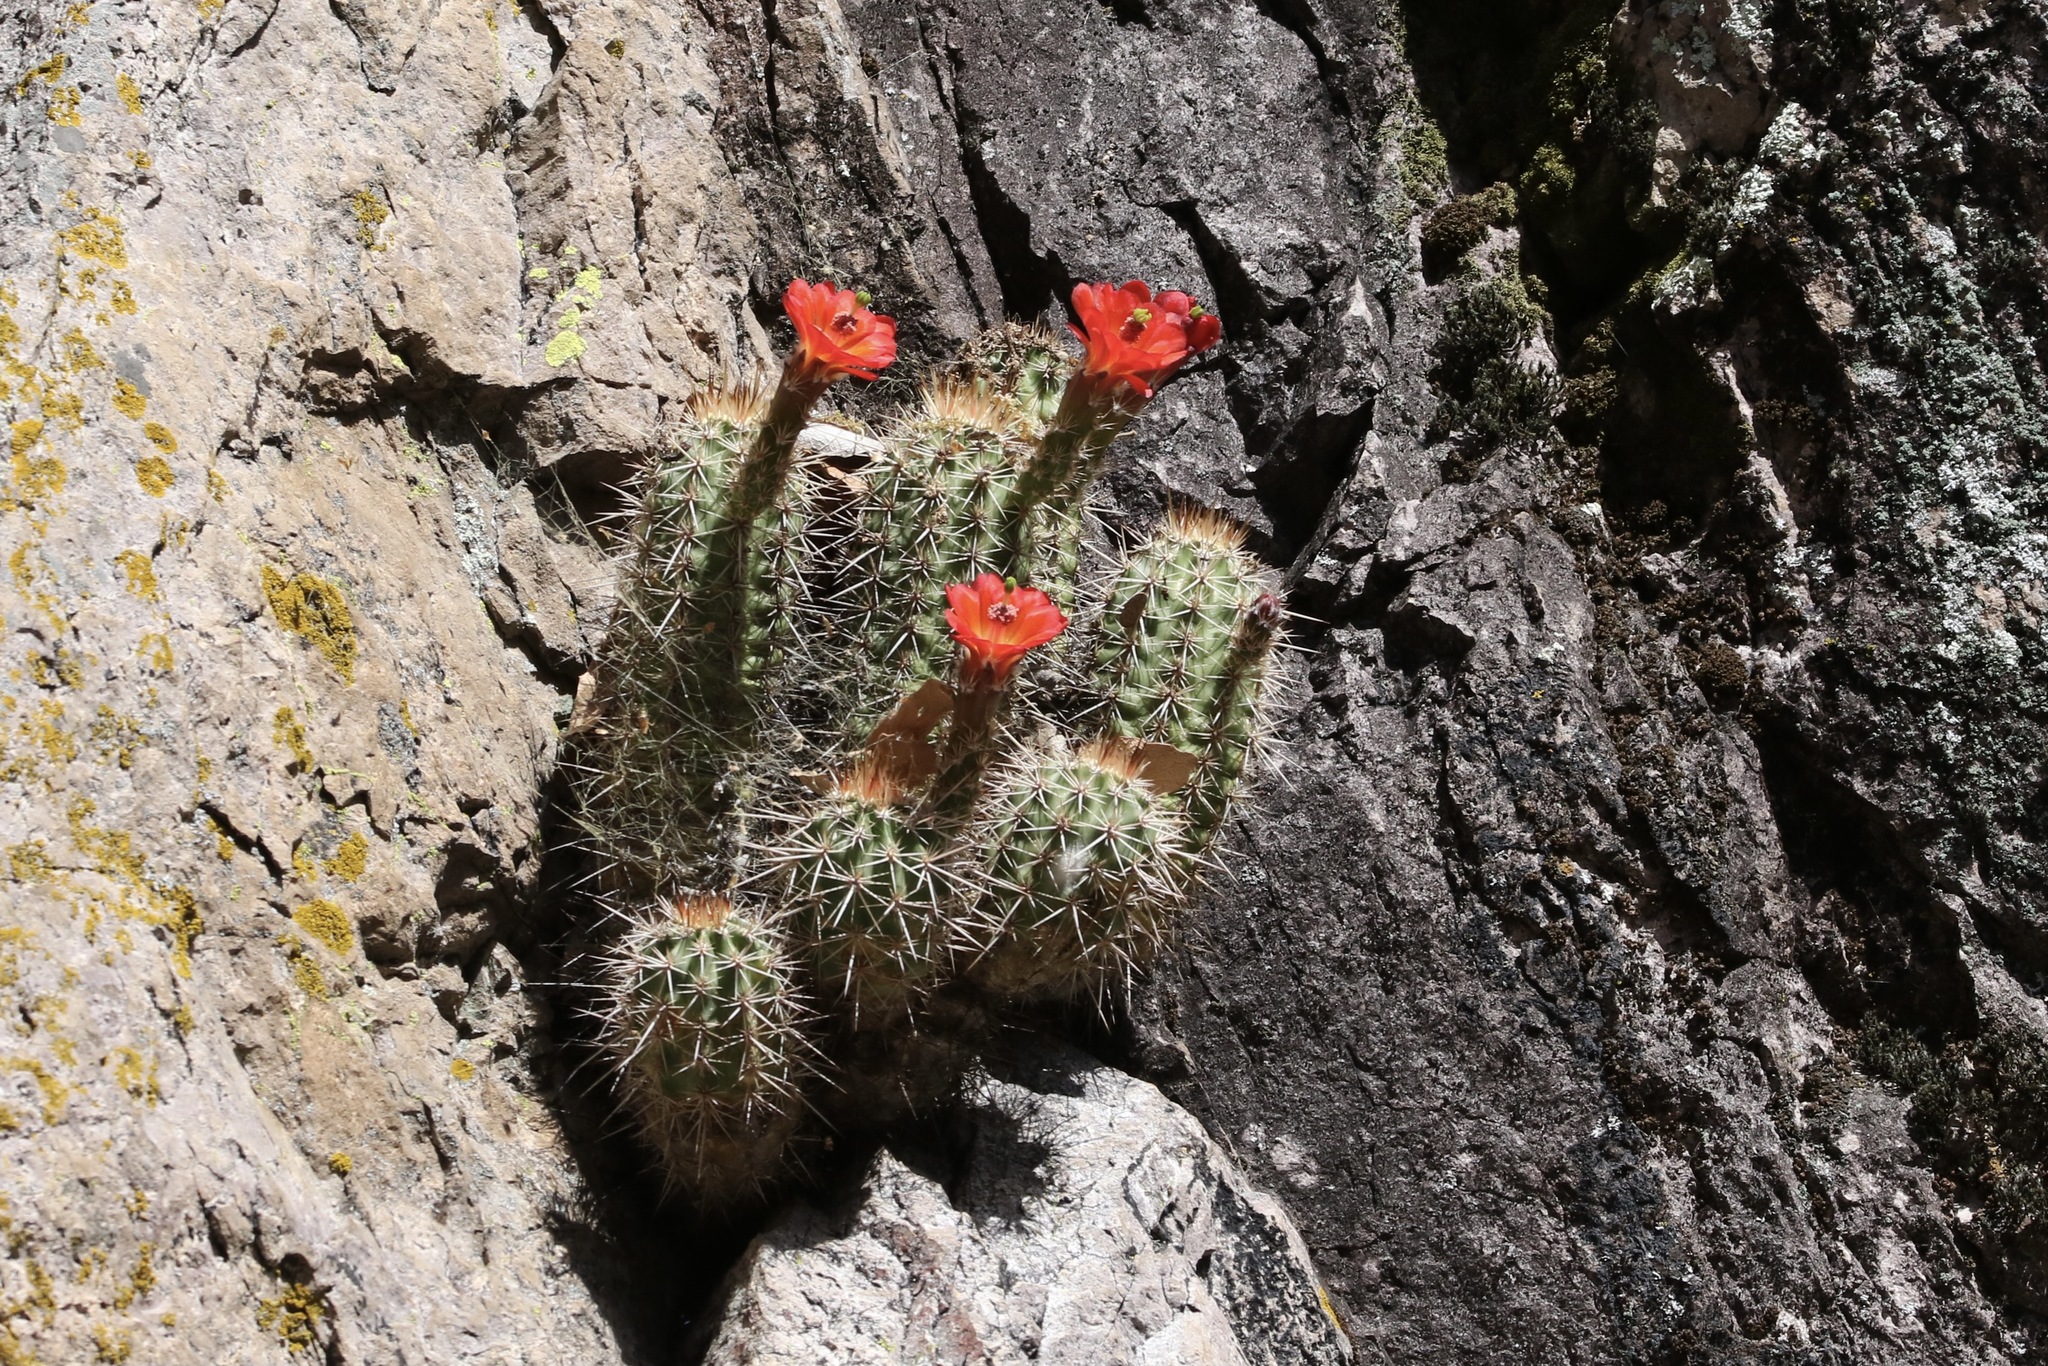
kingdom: Plantae
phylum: Tracheophyta
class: Magnoliopsida
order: Caryophyllales
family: Cactaceae
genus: Echinocereus
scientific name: Echinocereus coccineus
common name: Scarlet hedgehog cactus
